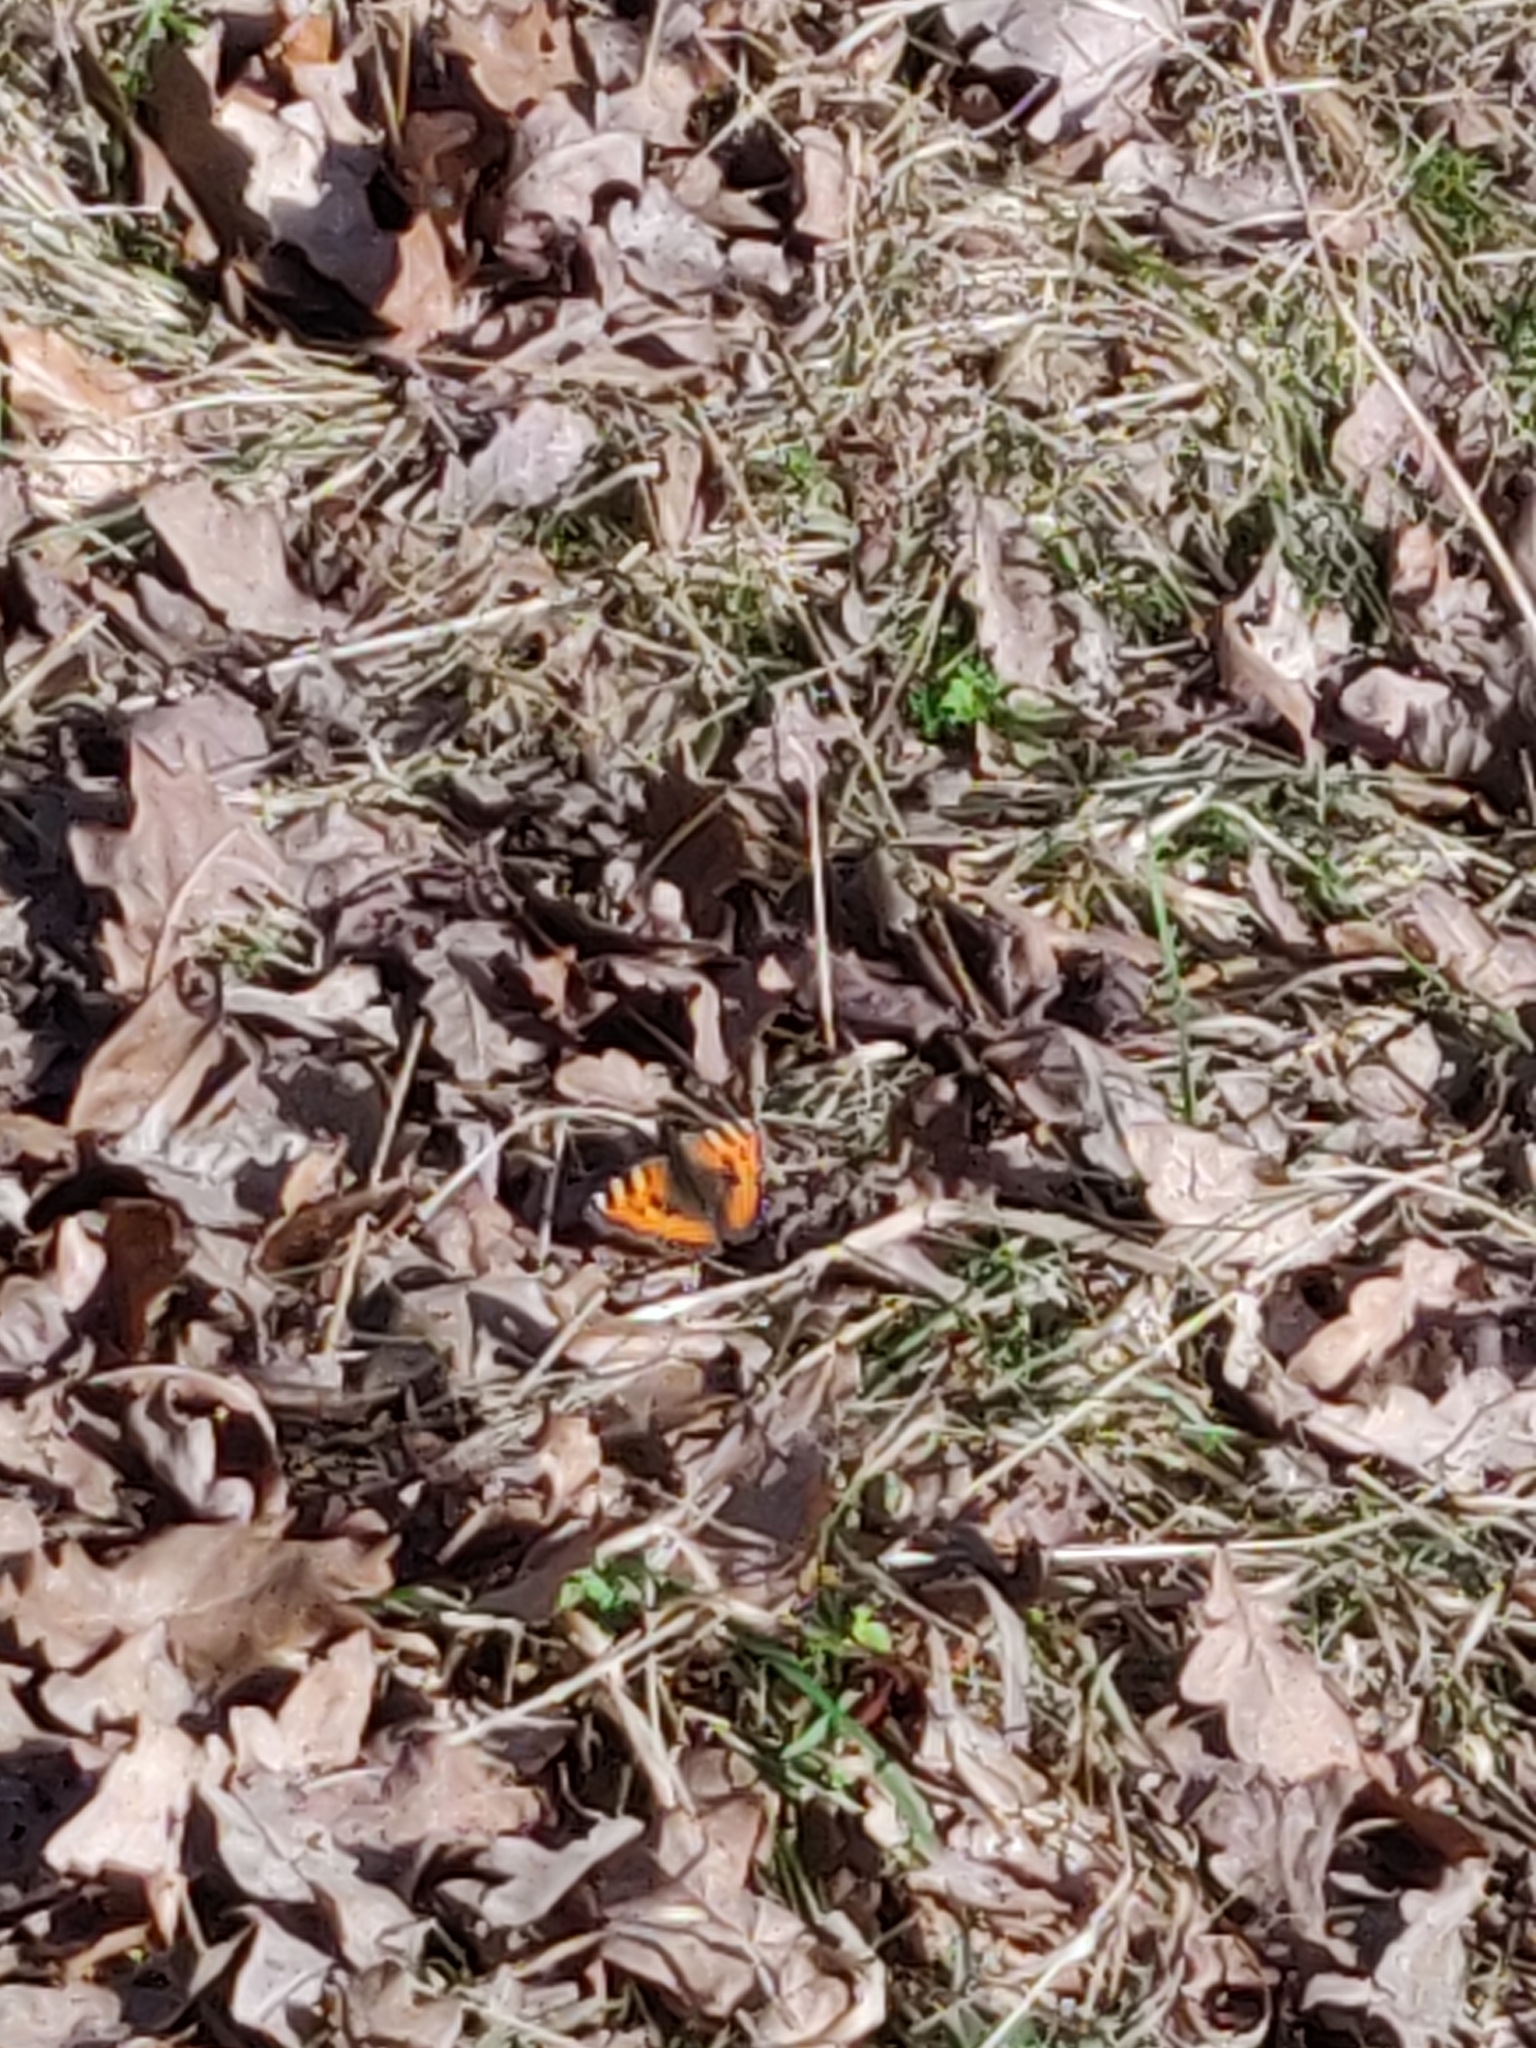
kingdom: Animalia
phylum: Arthropoda
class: Insecta
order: Lepidoptera
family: Nymphalidae
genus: Aglais
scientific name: Aglais urticae
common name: Small tortoiseshell
